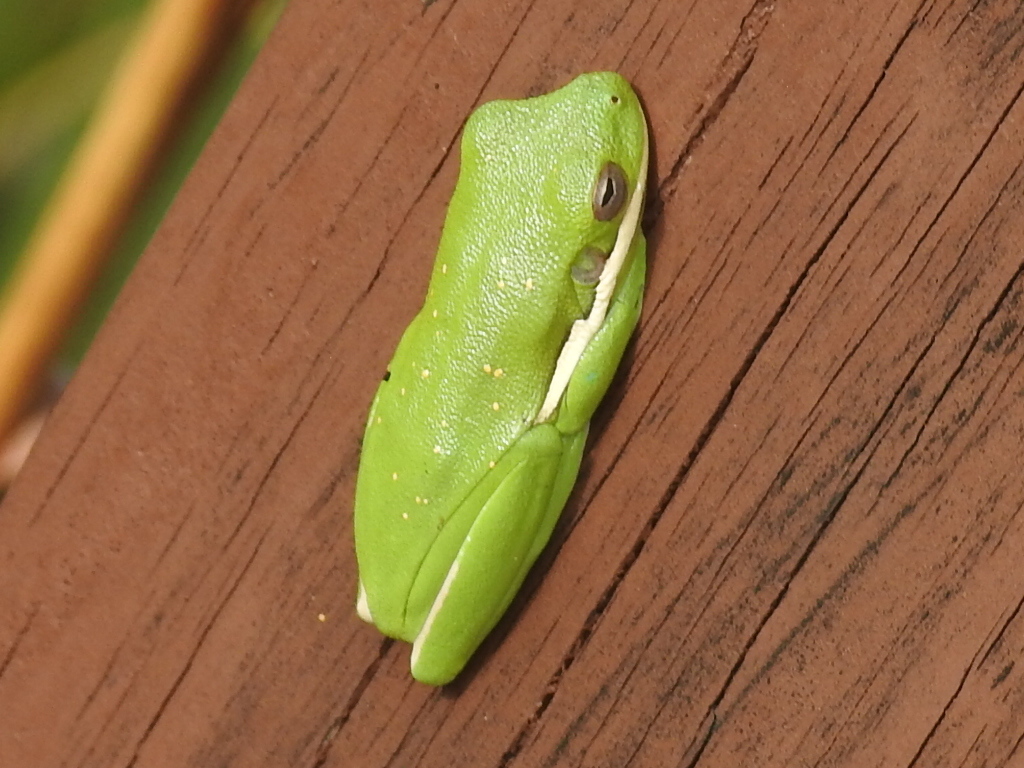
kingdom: Animalia
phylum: Chordata
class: Amphibia
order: Anura
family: Hylidae
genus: Dryophytes
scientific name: Dryophytes cinereus
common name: Green treefrog
